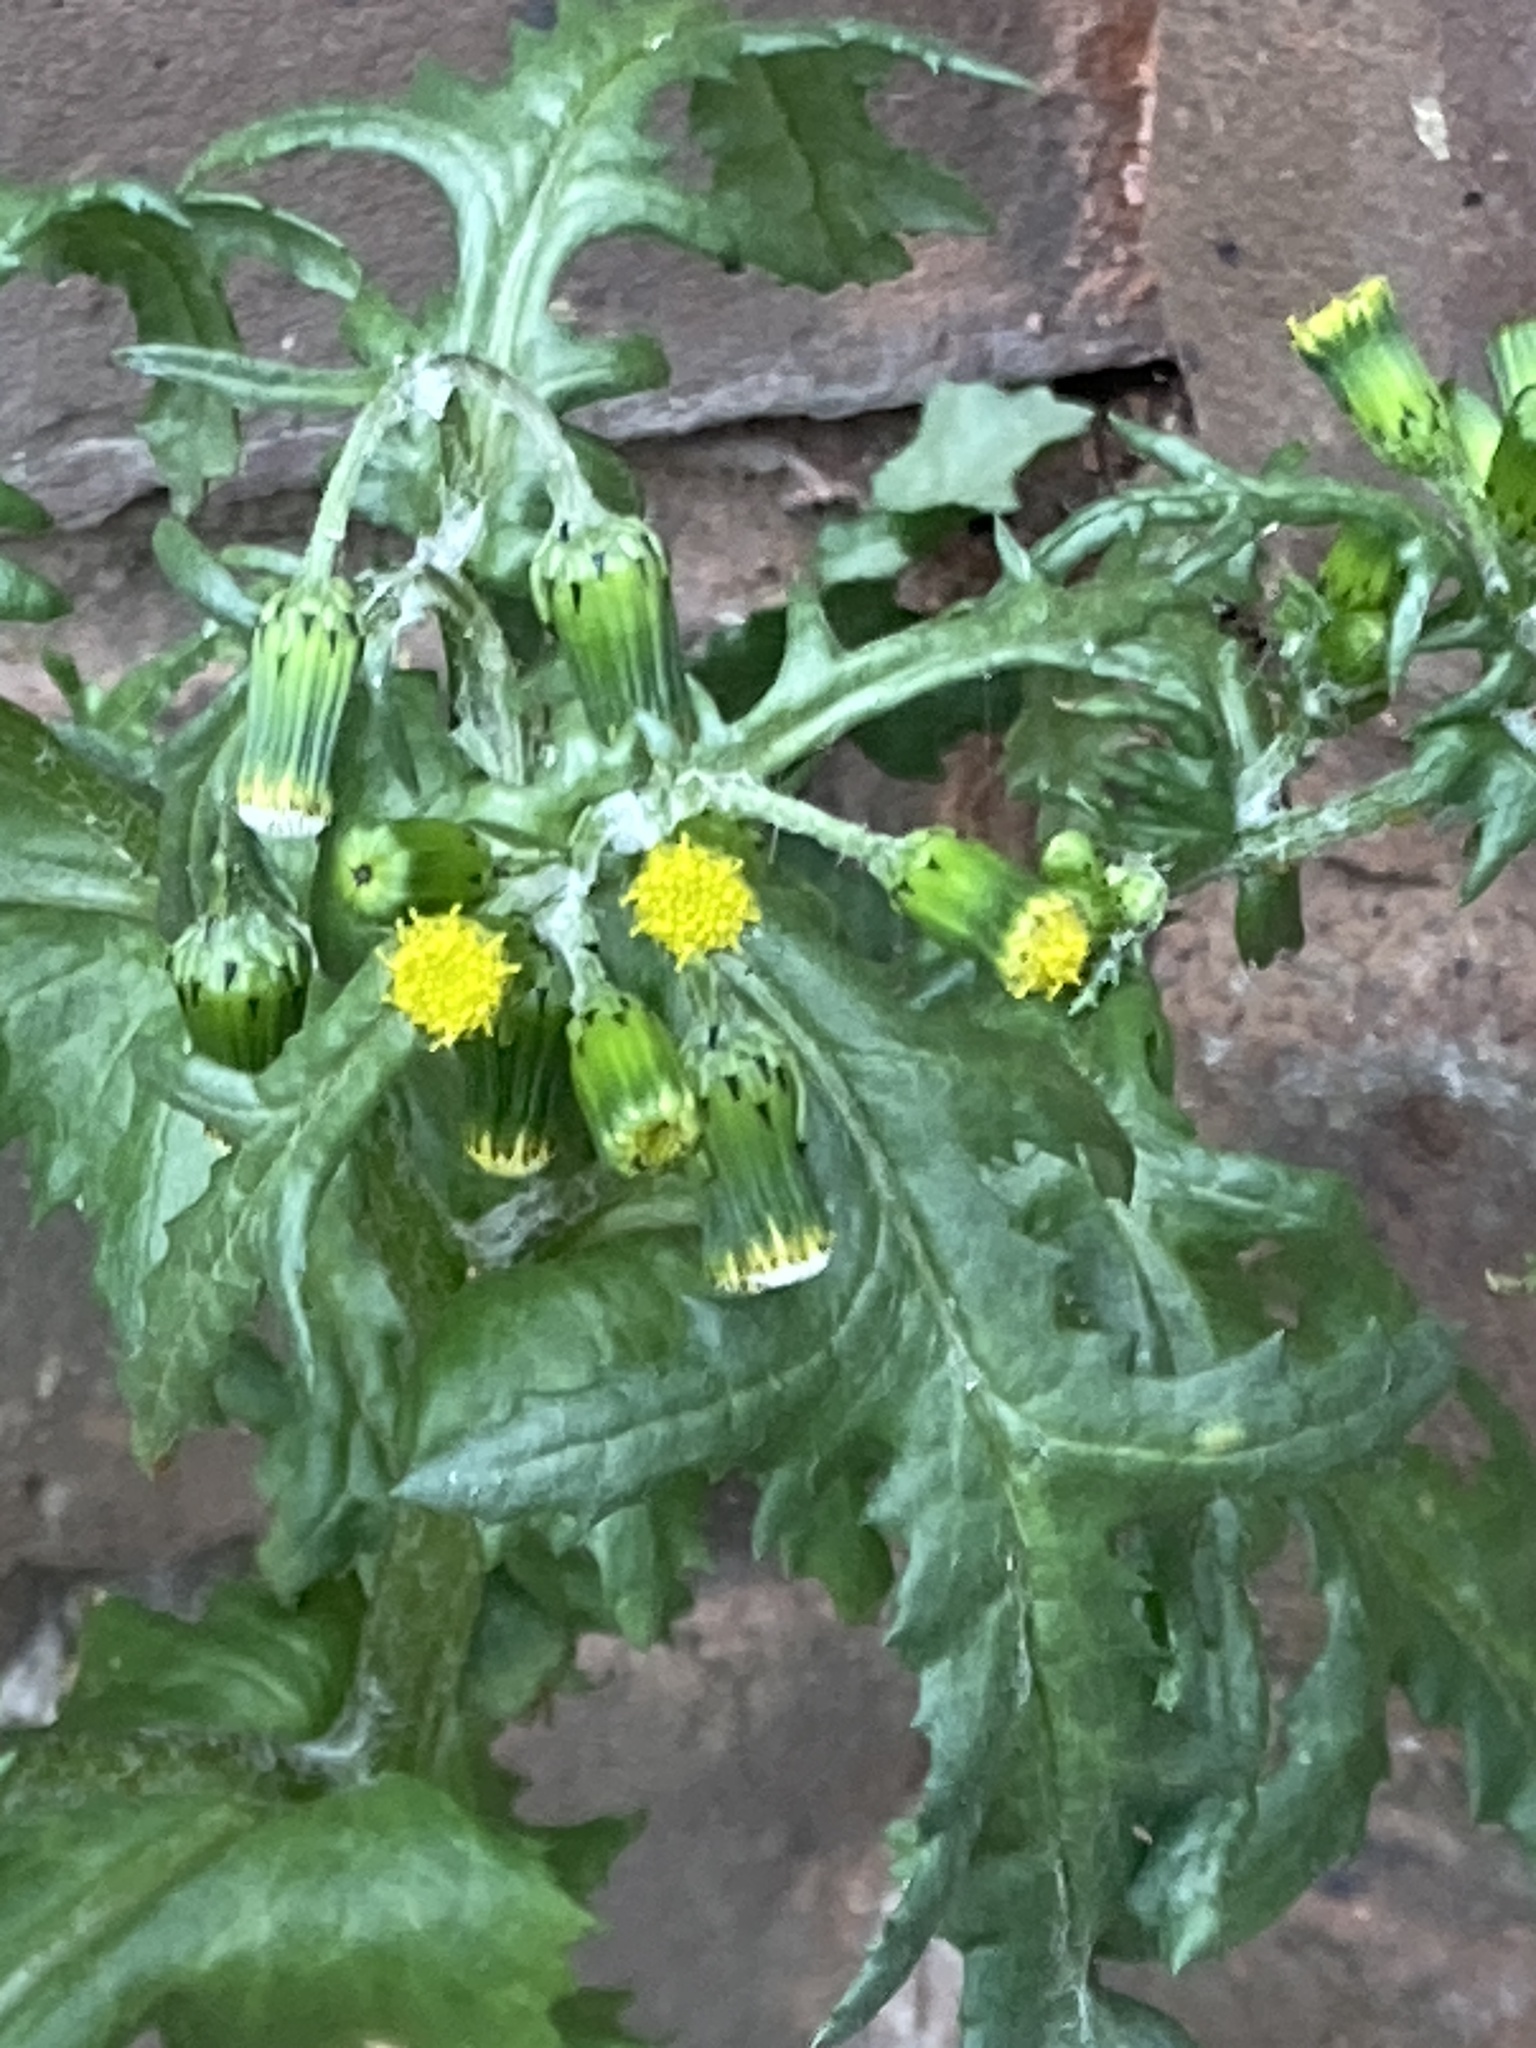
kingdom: Plantae
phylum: Tracheophyta
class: Magnoliopsida
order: Asterales
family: Asteraceae
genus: Senecio
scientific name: Senecio vulgaris
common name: Old-man-in-the-spring
